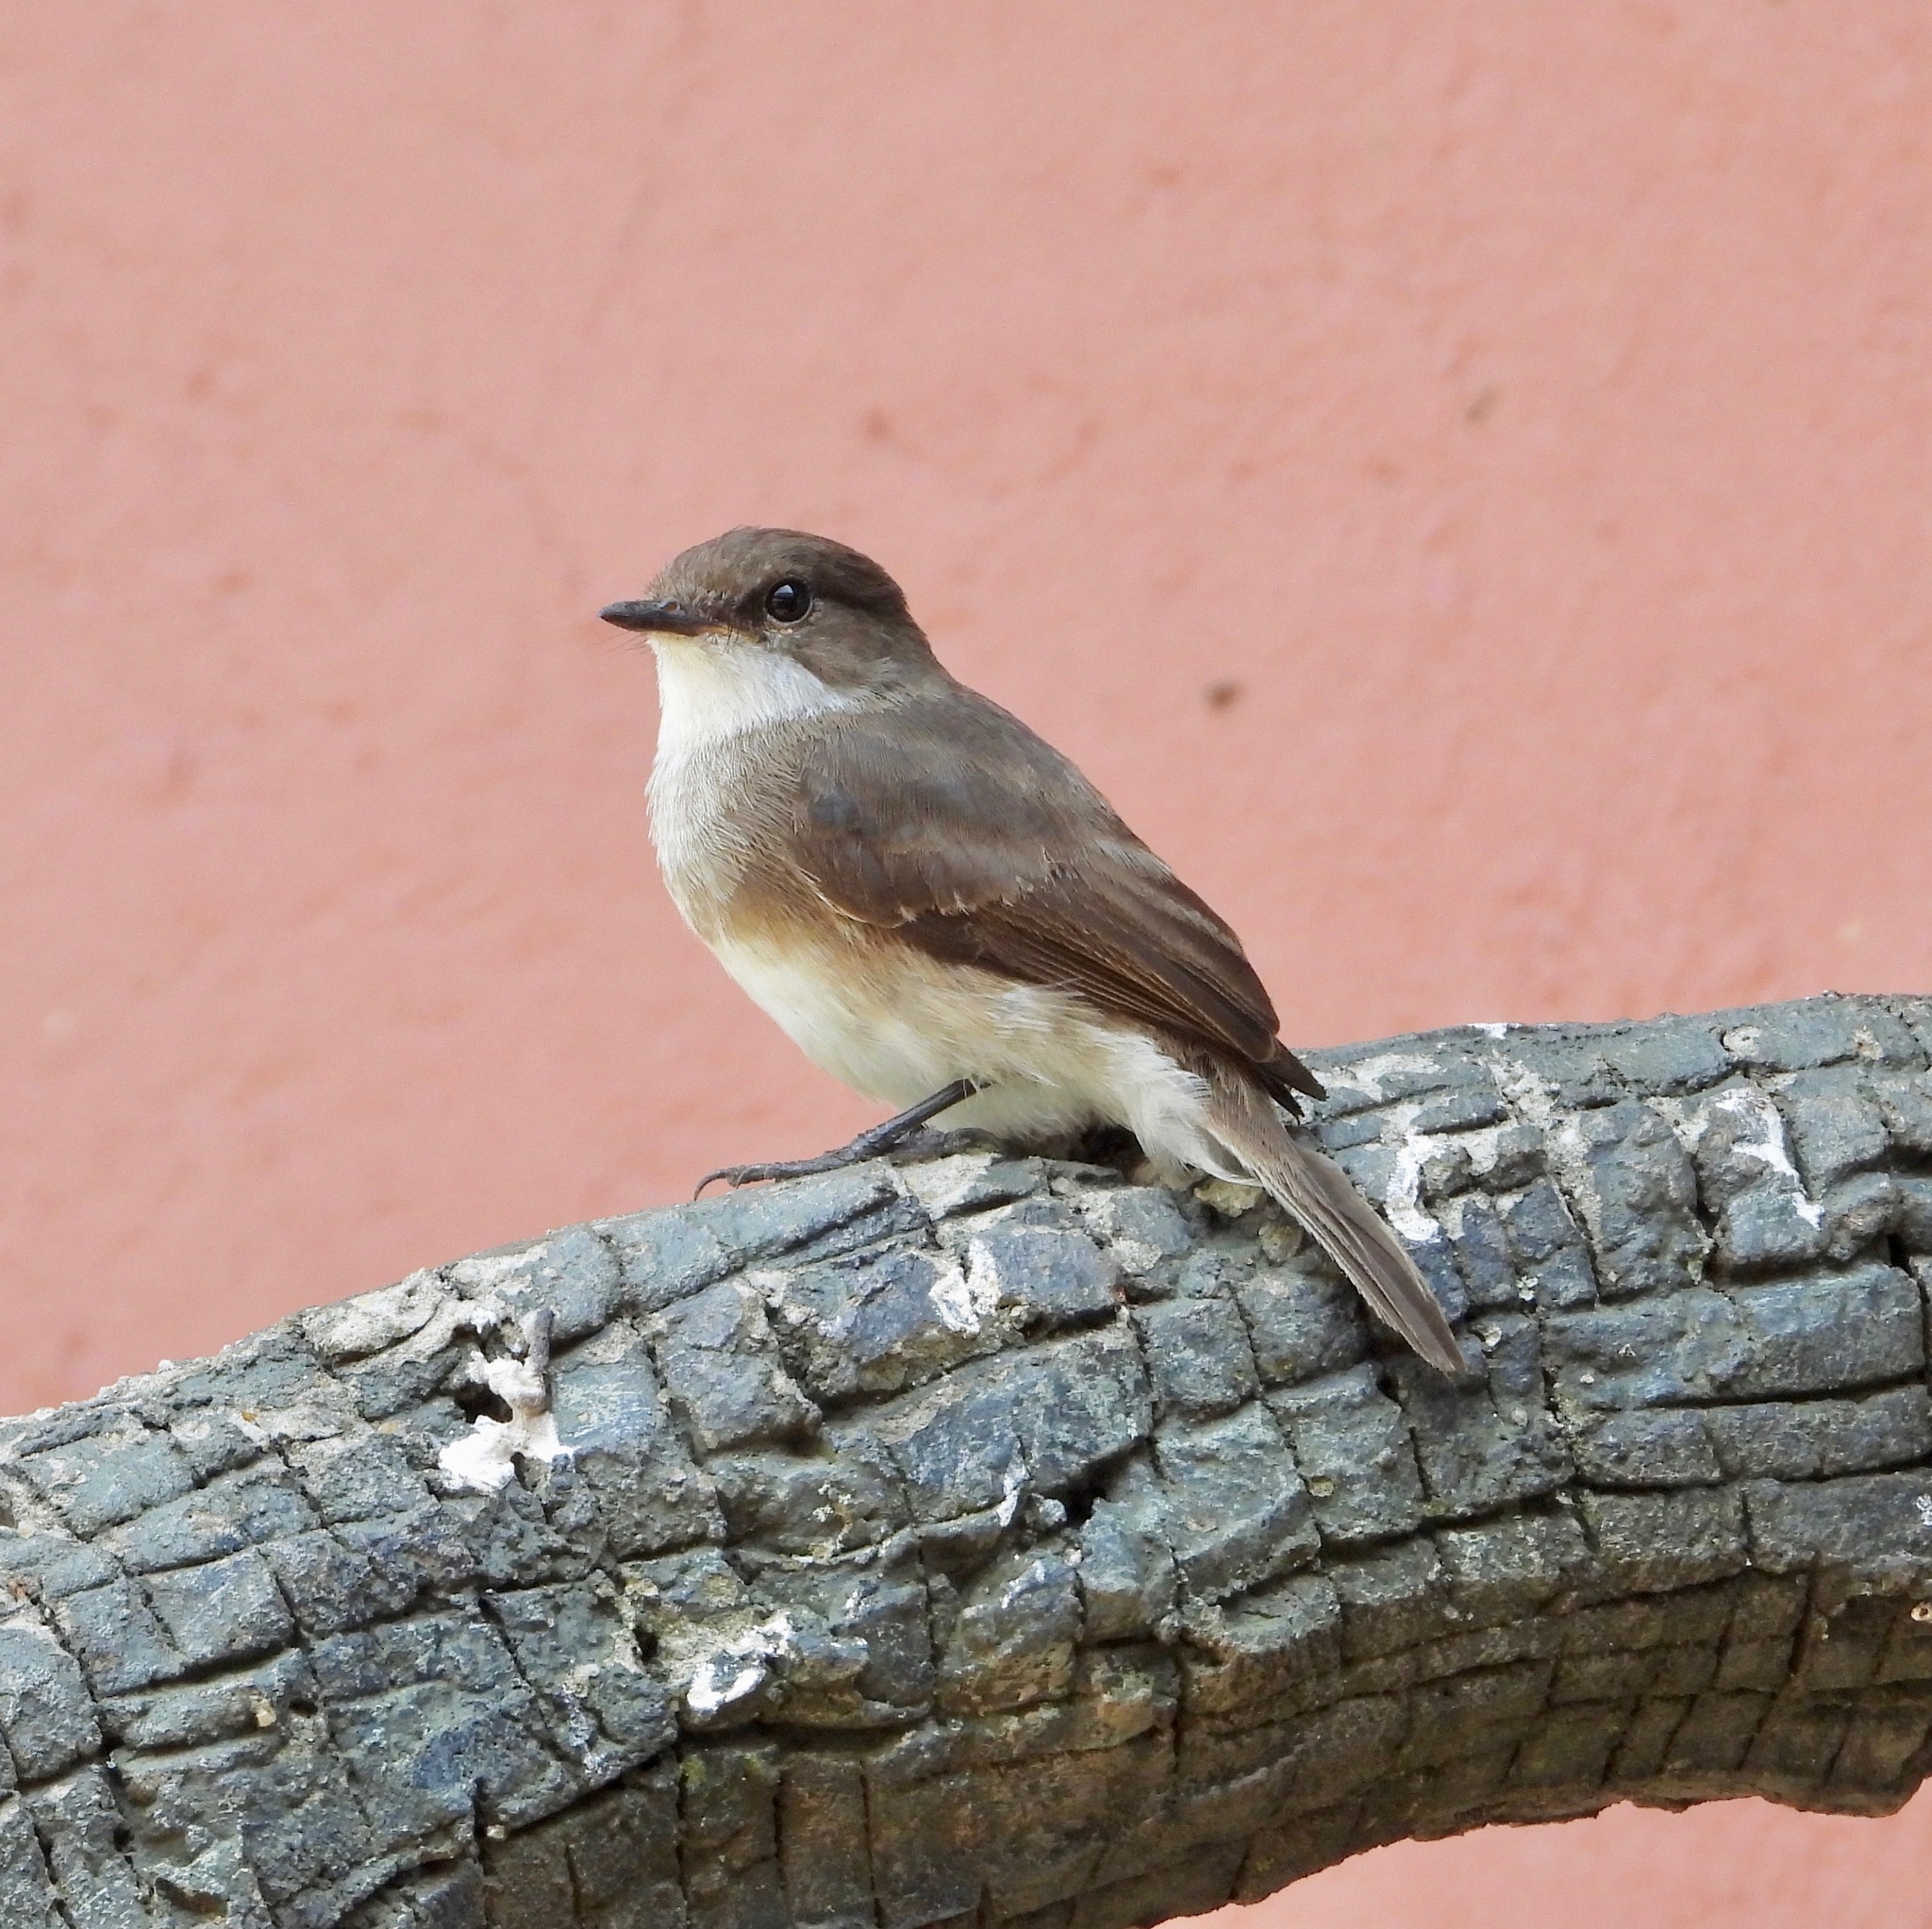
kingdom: Animalia
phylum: Chordata
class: Aves
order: Passeriformes
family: Muscicapidae
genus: Muscicapa
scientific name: Muscicapa aquatica
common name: Swamp flycatcher
